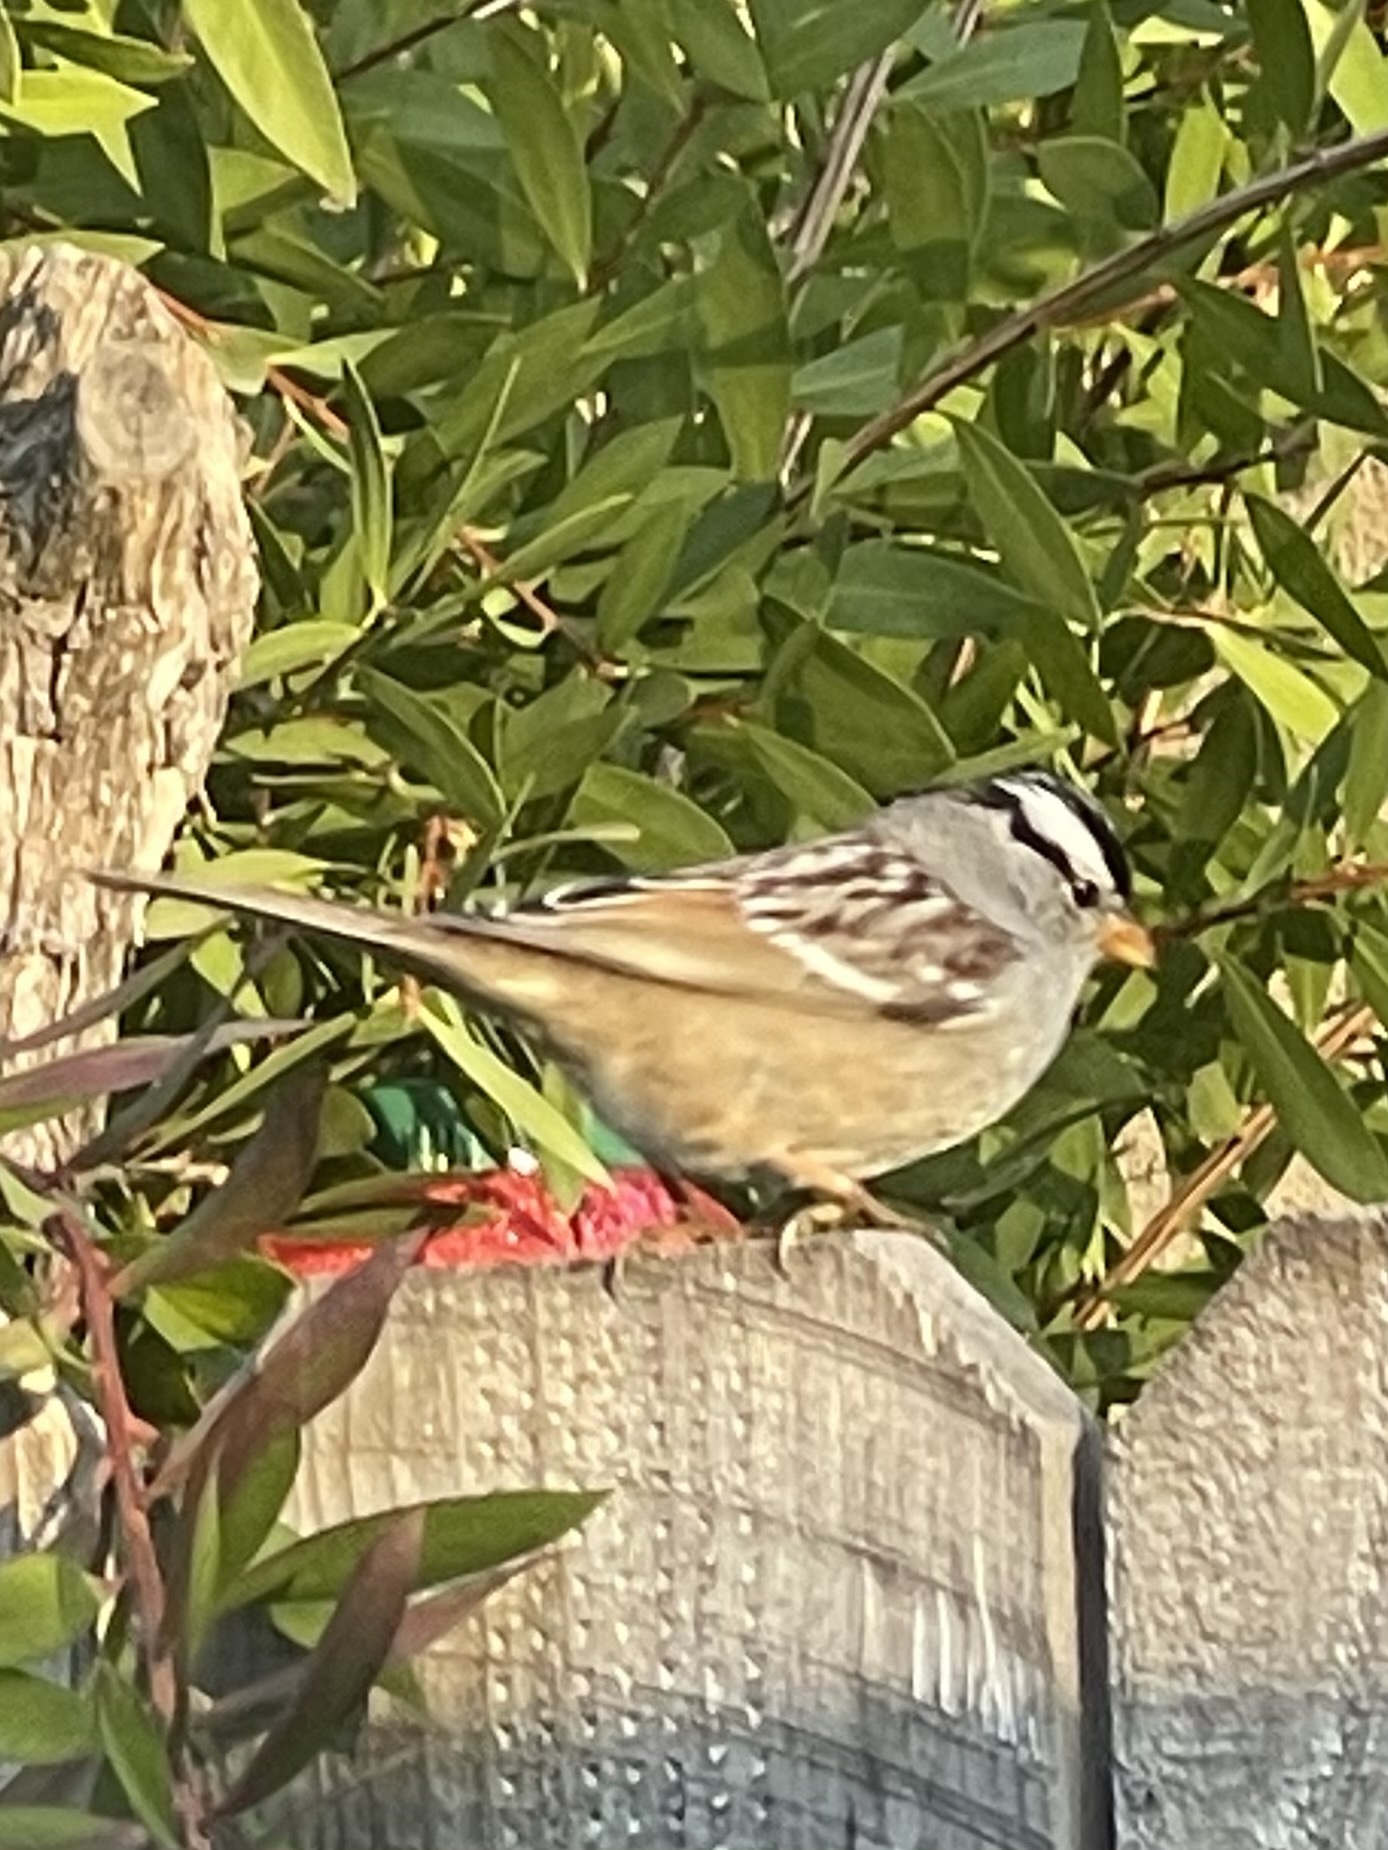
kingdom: Animalia
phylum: Chordata
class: Aves
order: Passeriformes
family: Passerellidae
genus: Zonotrichia
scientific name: Zonotrichia leucophrys
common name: White-crowned sparrow
